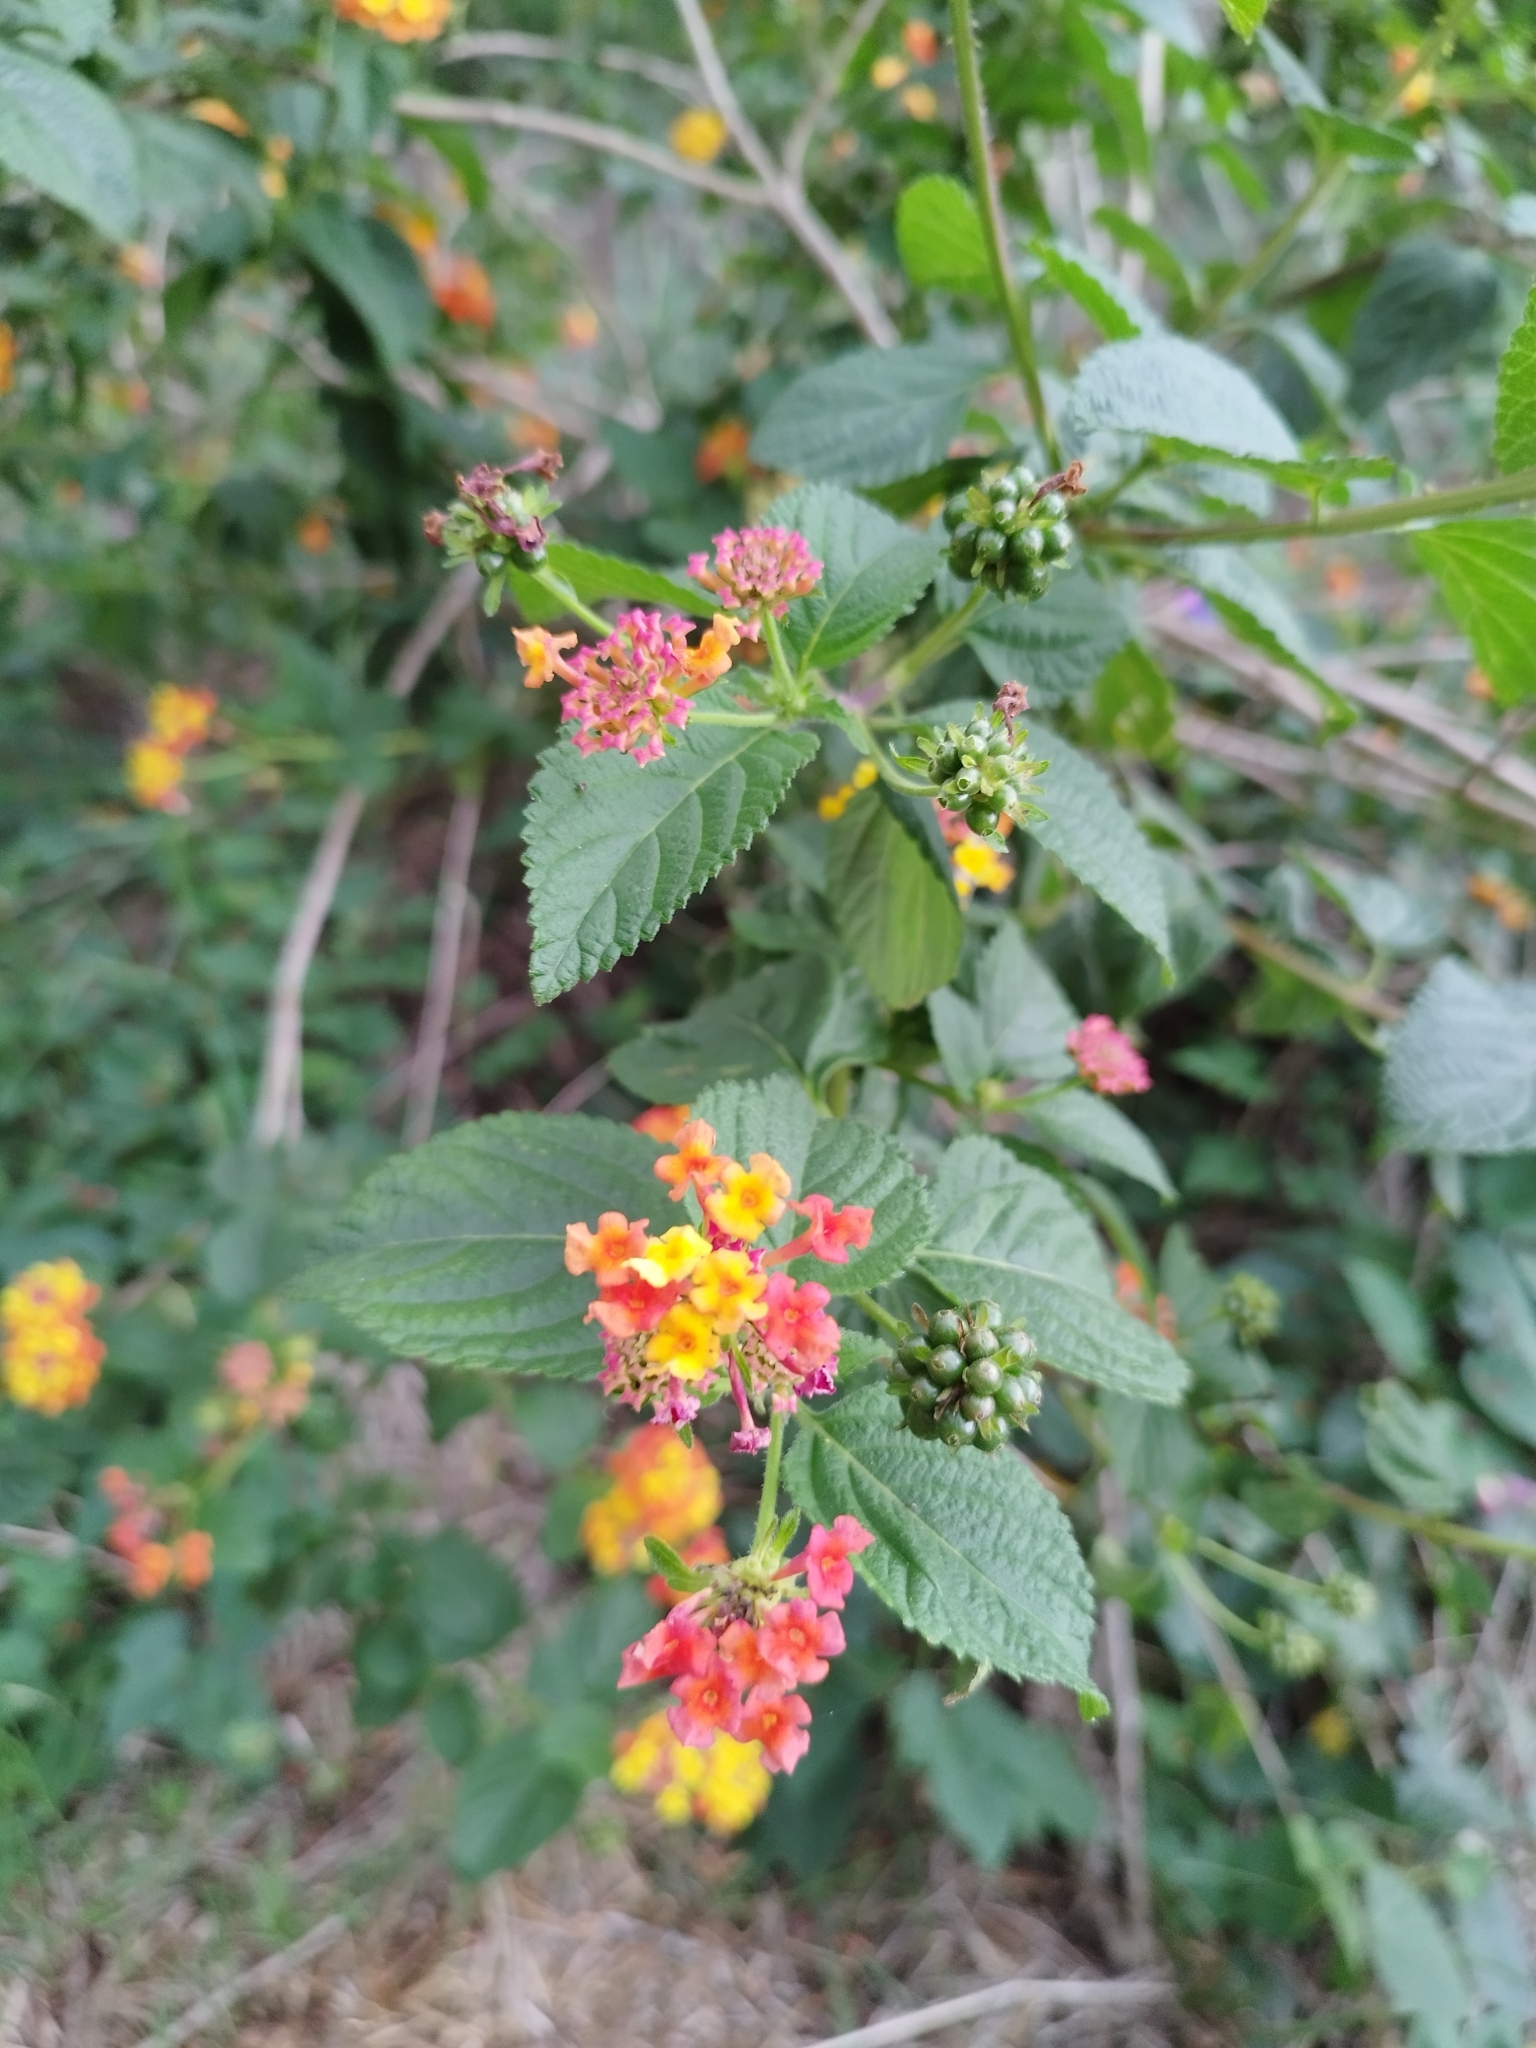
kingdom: Plantae
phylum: Tracheophyta
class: Magnoliopsida
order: Lamiales
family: Verbenaceae
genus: Lantana
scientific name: Lantana camara
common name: Lantana
